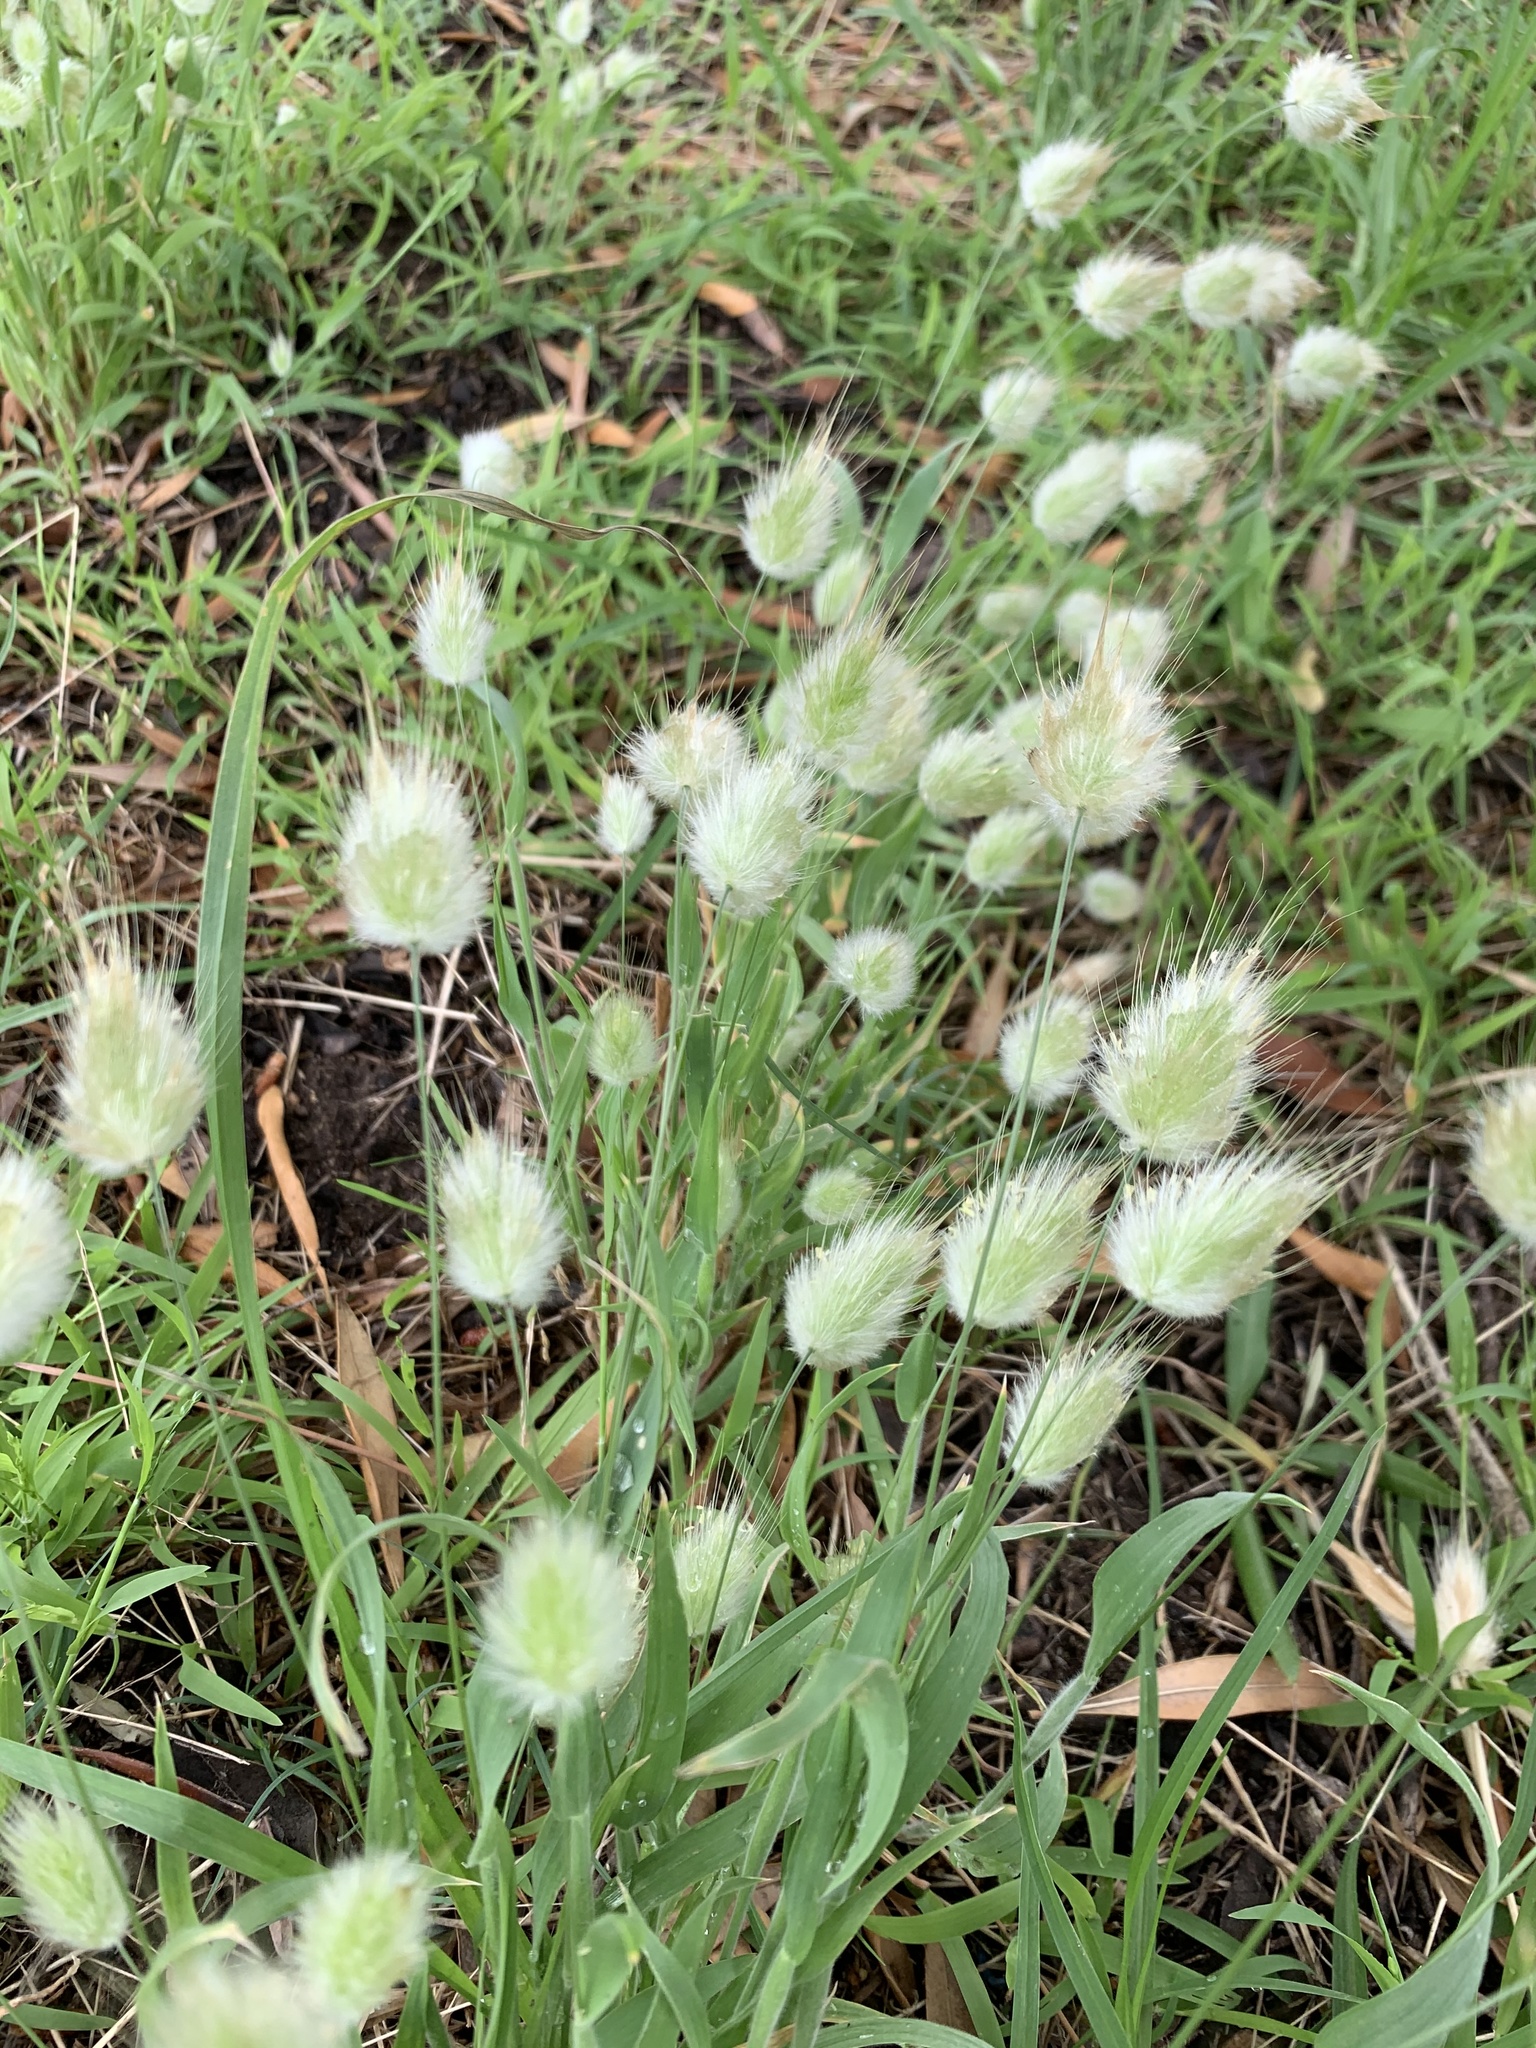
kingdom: Plantae
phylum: Tracheophyta
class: Liliopsida
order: Poales
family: Poaceae
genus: Lagurus
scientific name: Lagurus ovatus
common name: Hare's-tail
